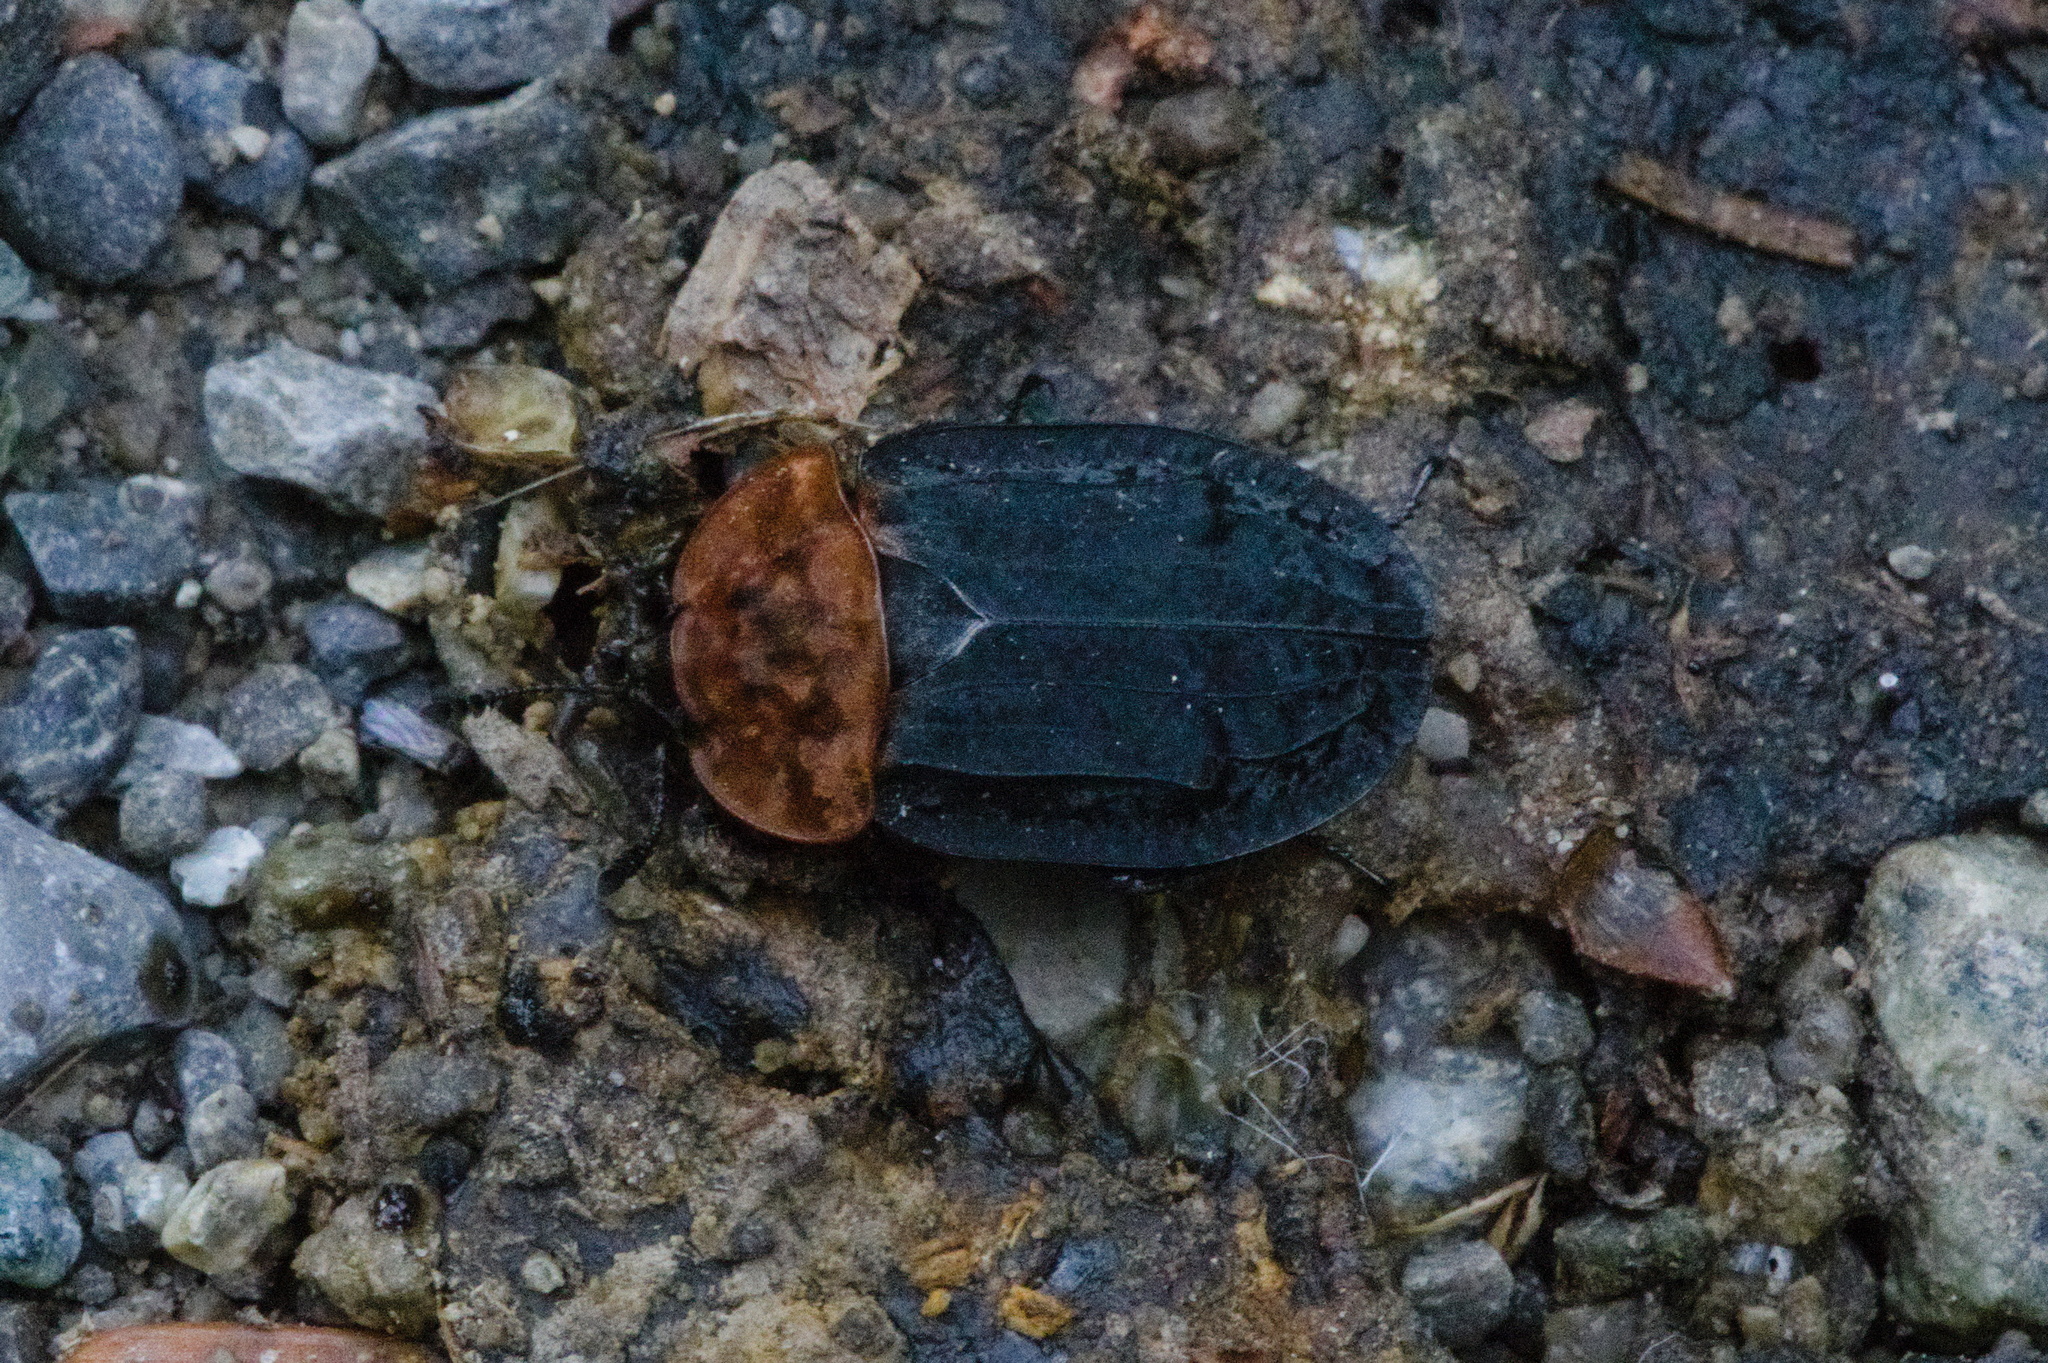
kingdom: Animalia
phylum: Arthropoda
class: Insecta
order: Coleoptera
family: Staphylinidae
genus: Oiceoptoma
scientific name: Oiceoptoma thoracicum
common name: Red-breasted carrion beetle
